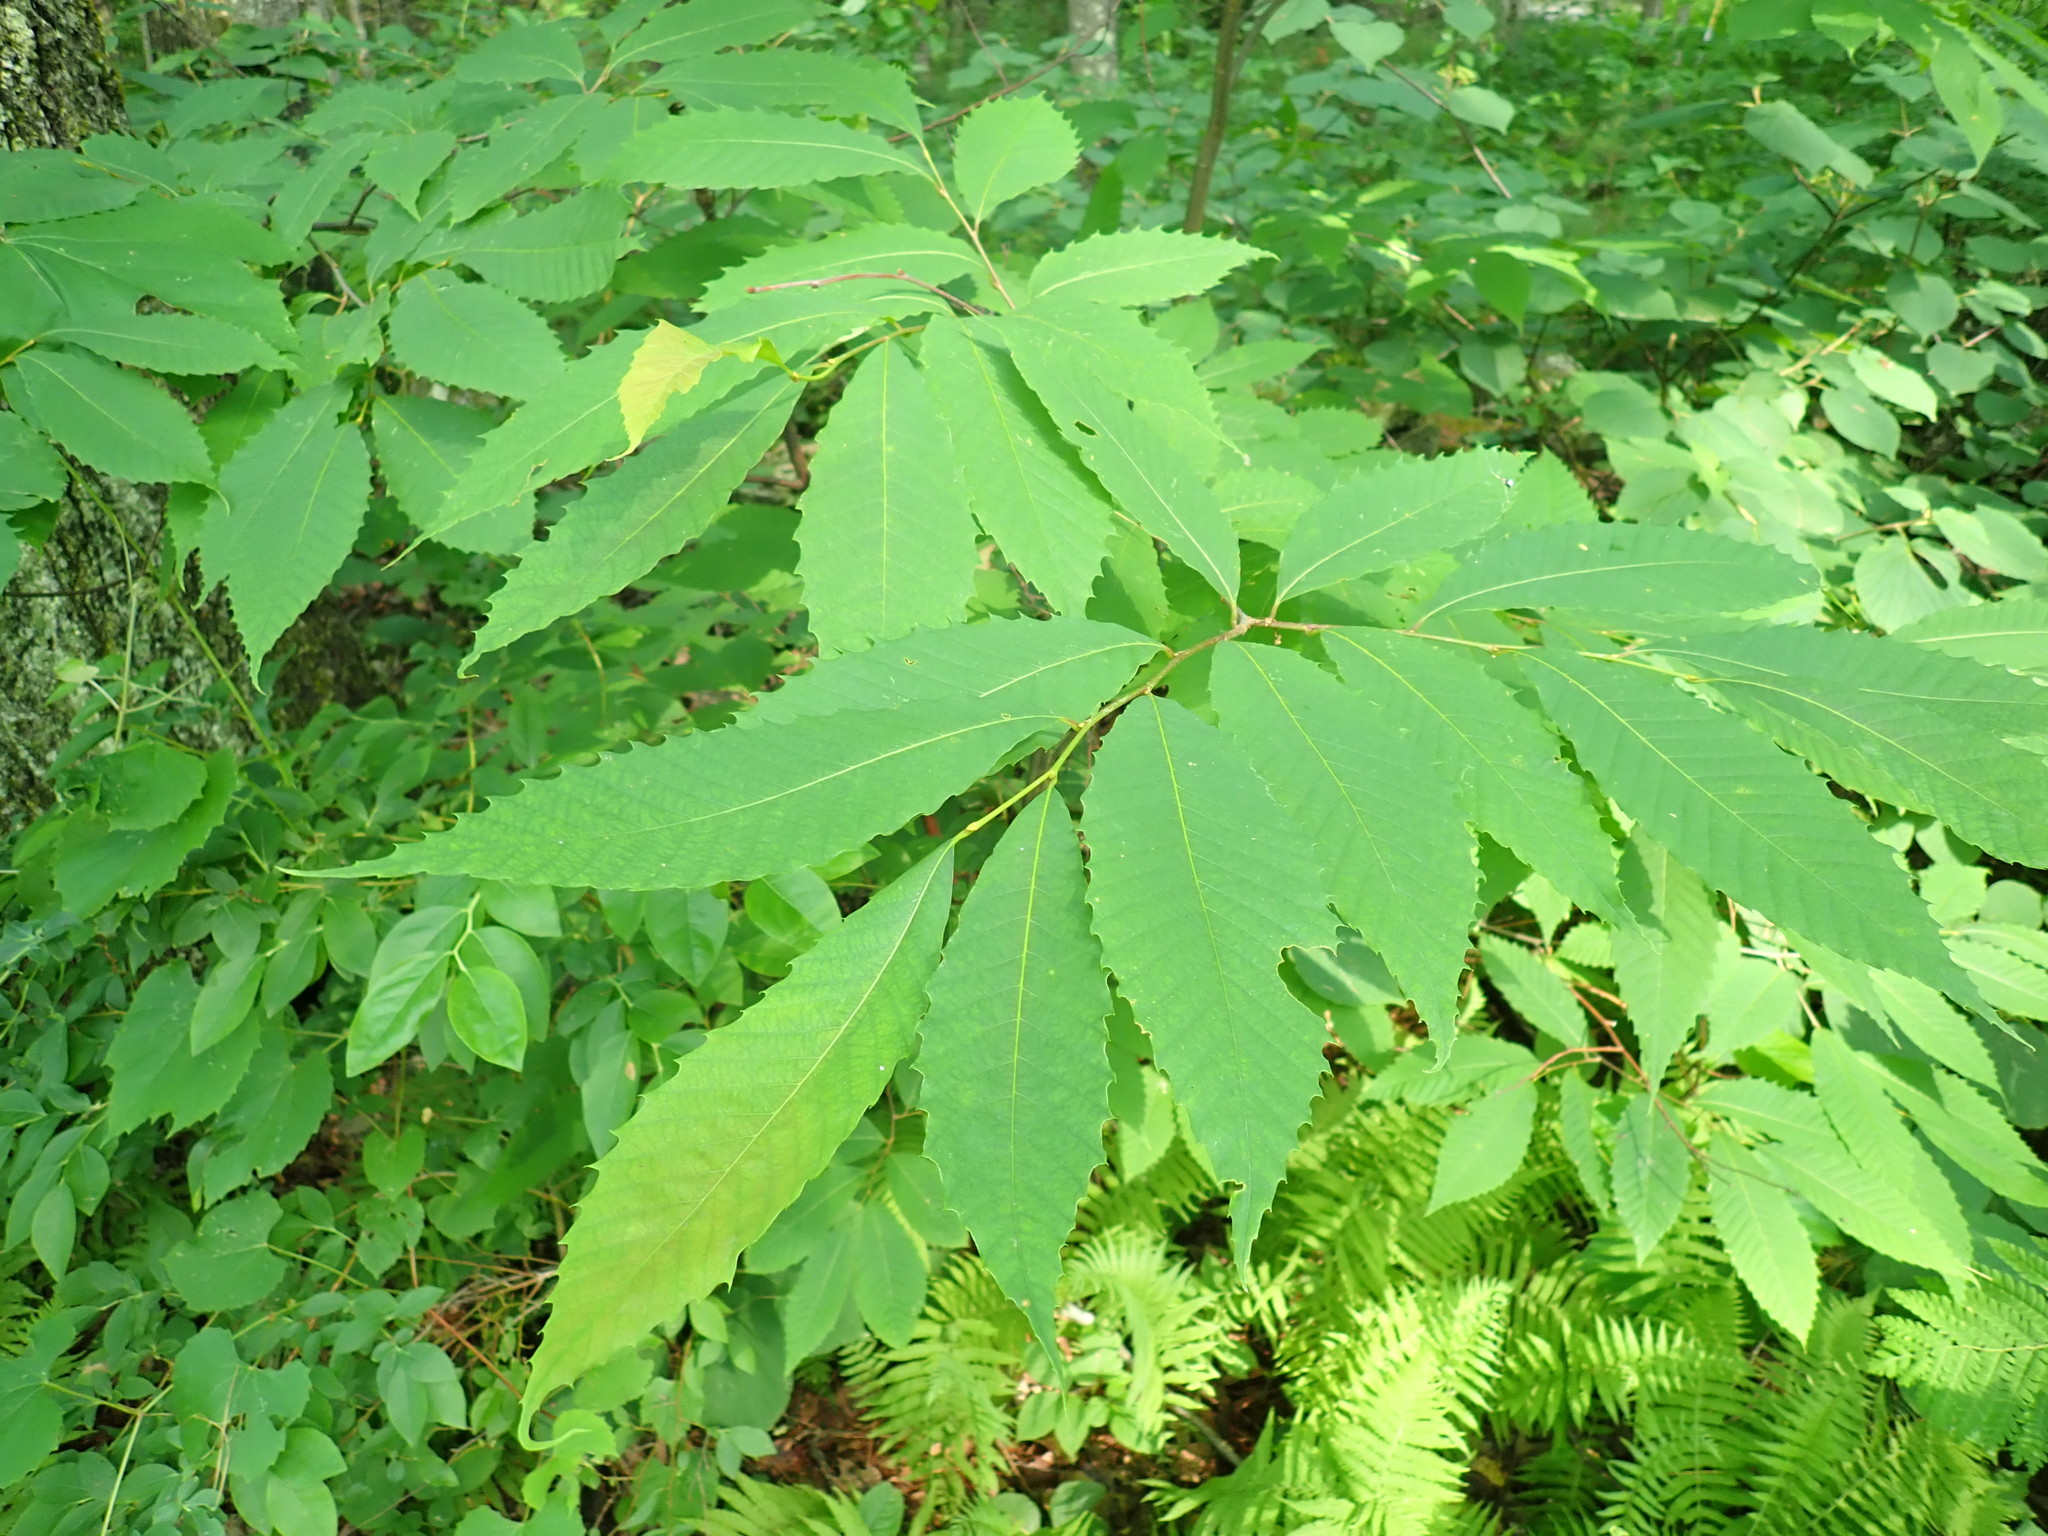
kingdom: Plantae
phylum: Tracheophyta
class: Magnoliopsida
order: Fagales
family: Fagaceae
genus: Castanea
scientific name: Castanea dentata
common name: American chestnut
